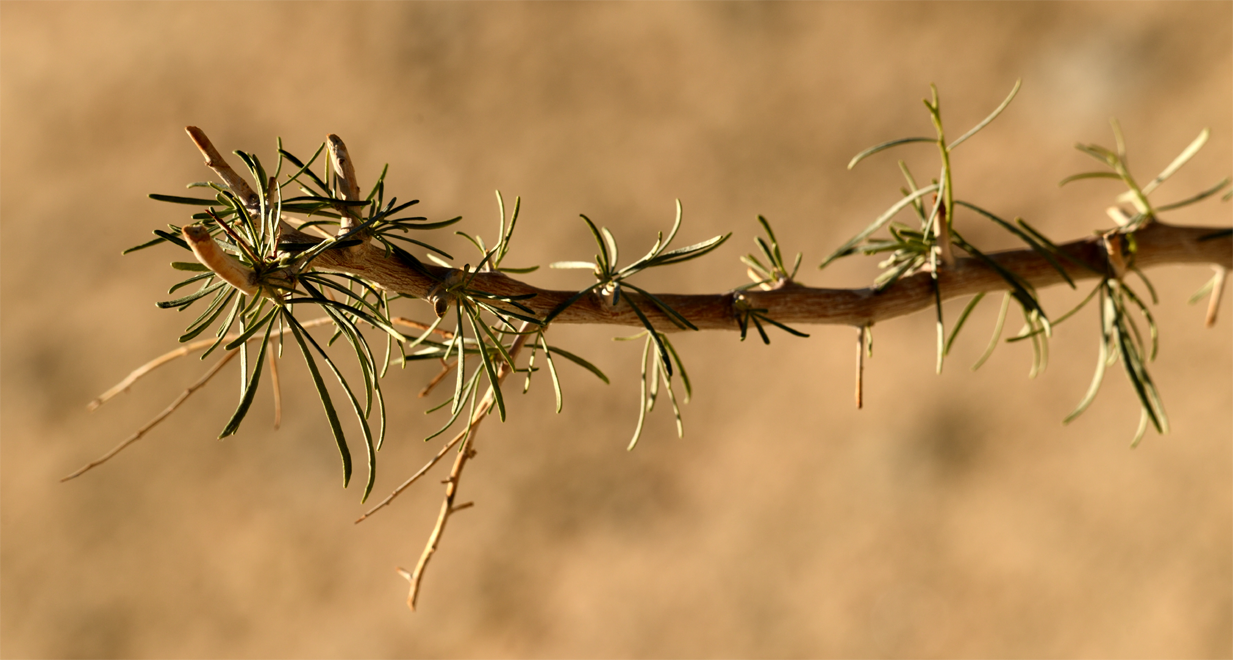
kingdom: Plantae
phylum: Tracheophyta
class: Magnoliopsida
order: Fabales
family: Fabaceae
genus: Psorothamnus
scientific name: Psorothamnus schottii
